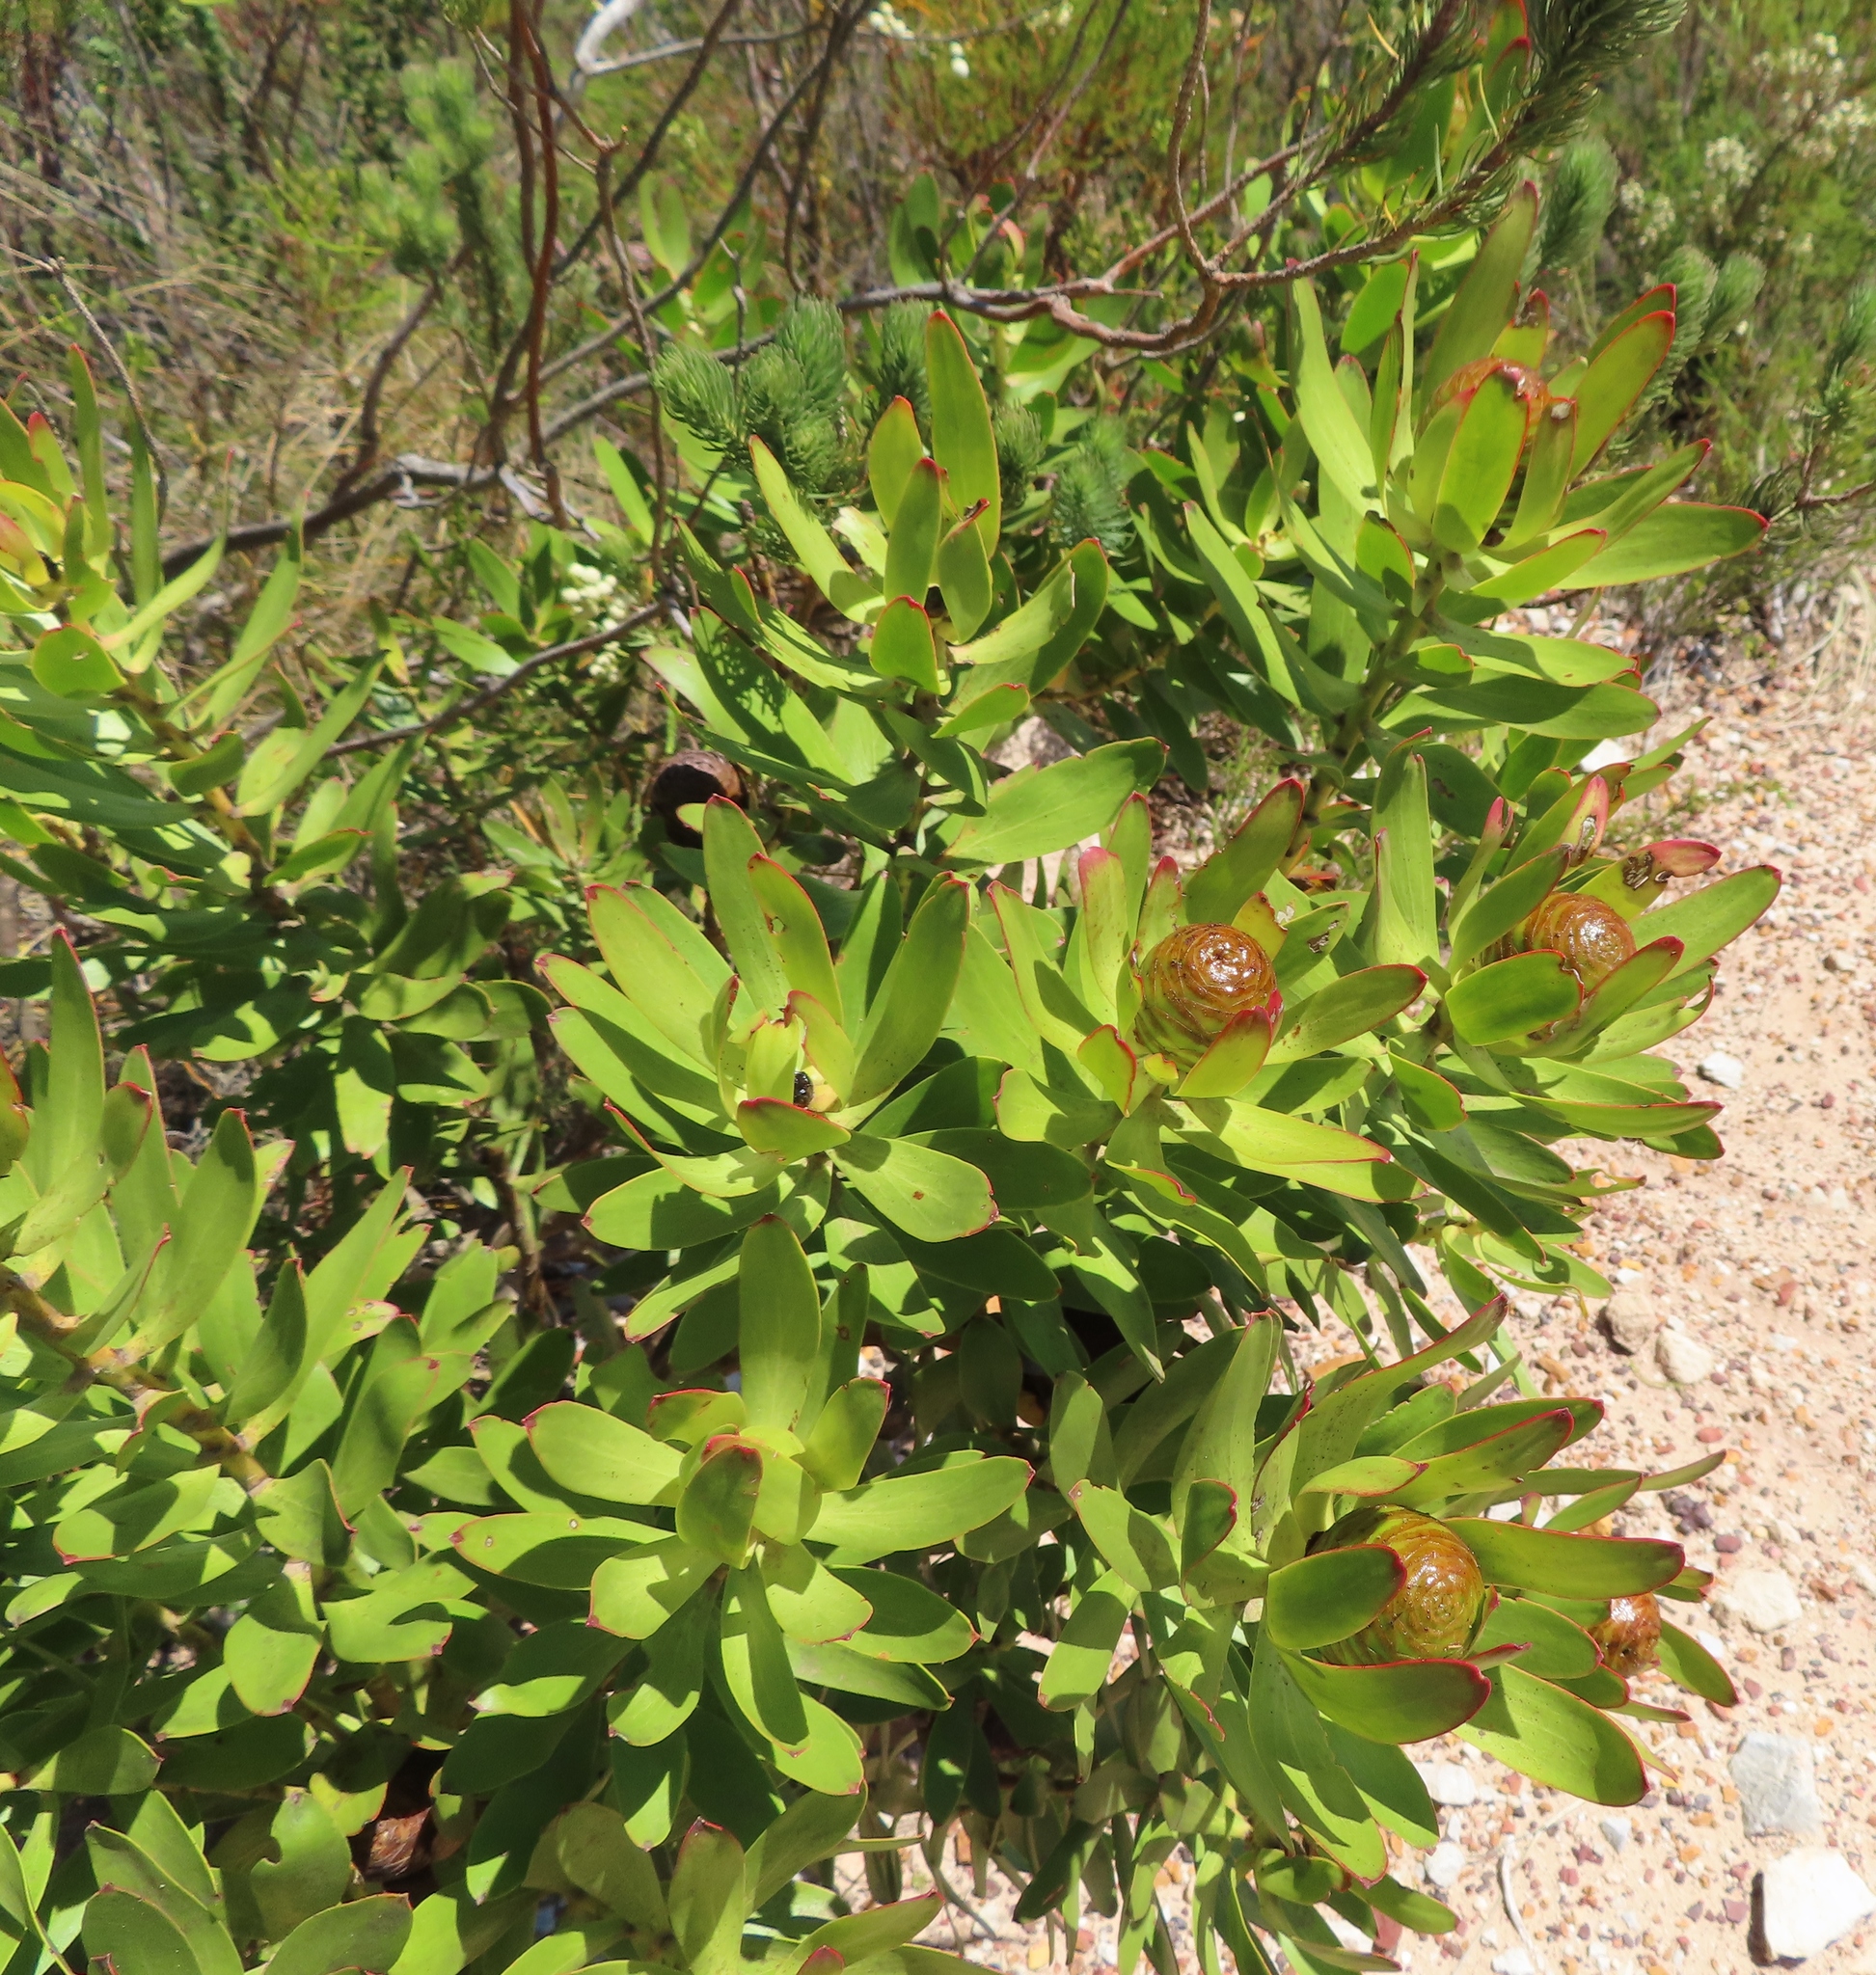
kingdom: Plantae
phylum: Tracheophyta
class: Magnoliopsida
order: Proteales
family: Proteaceae
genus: Leucadendron
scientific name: Leucadendron microcephalum
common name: Oilbract conebush
